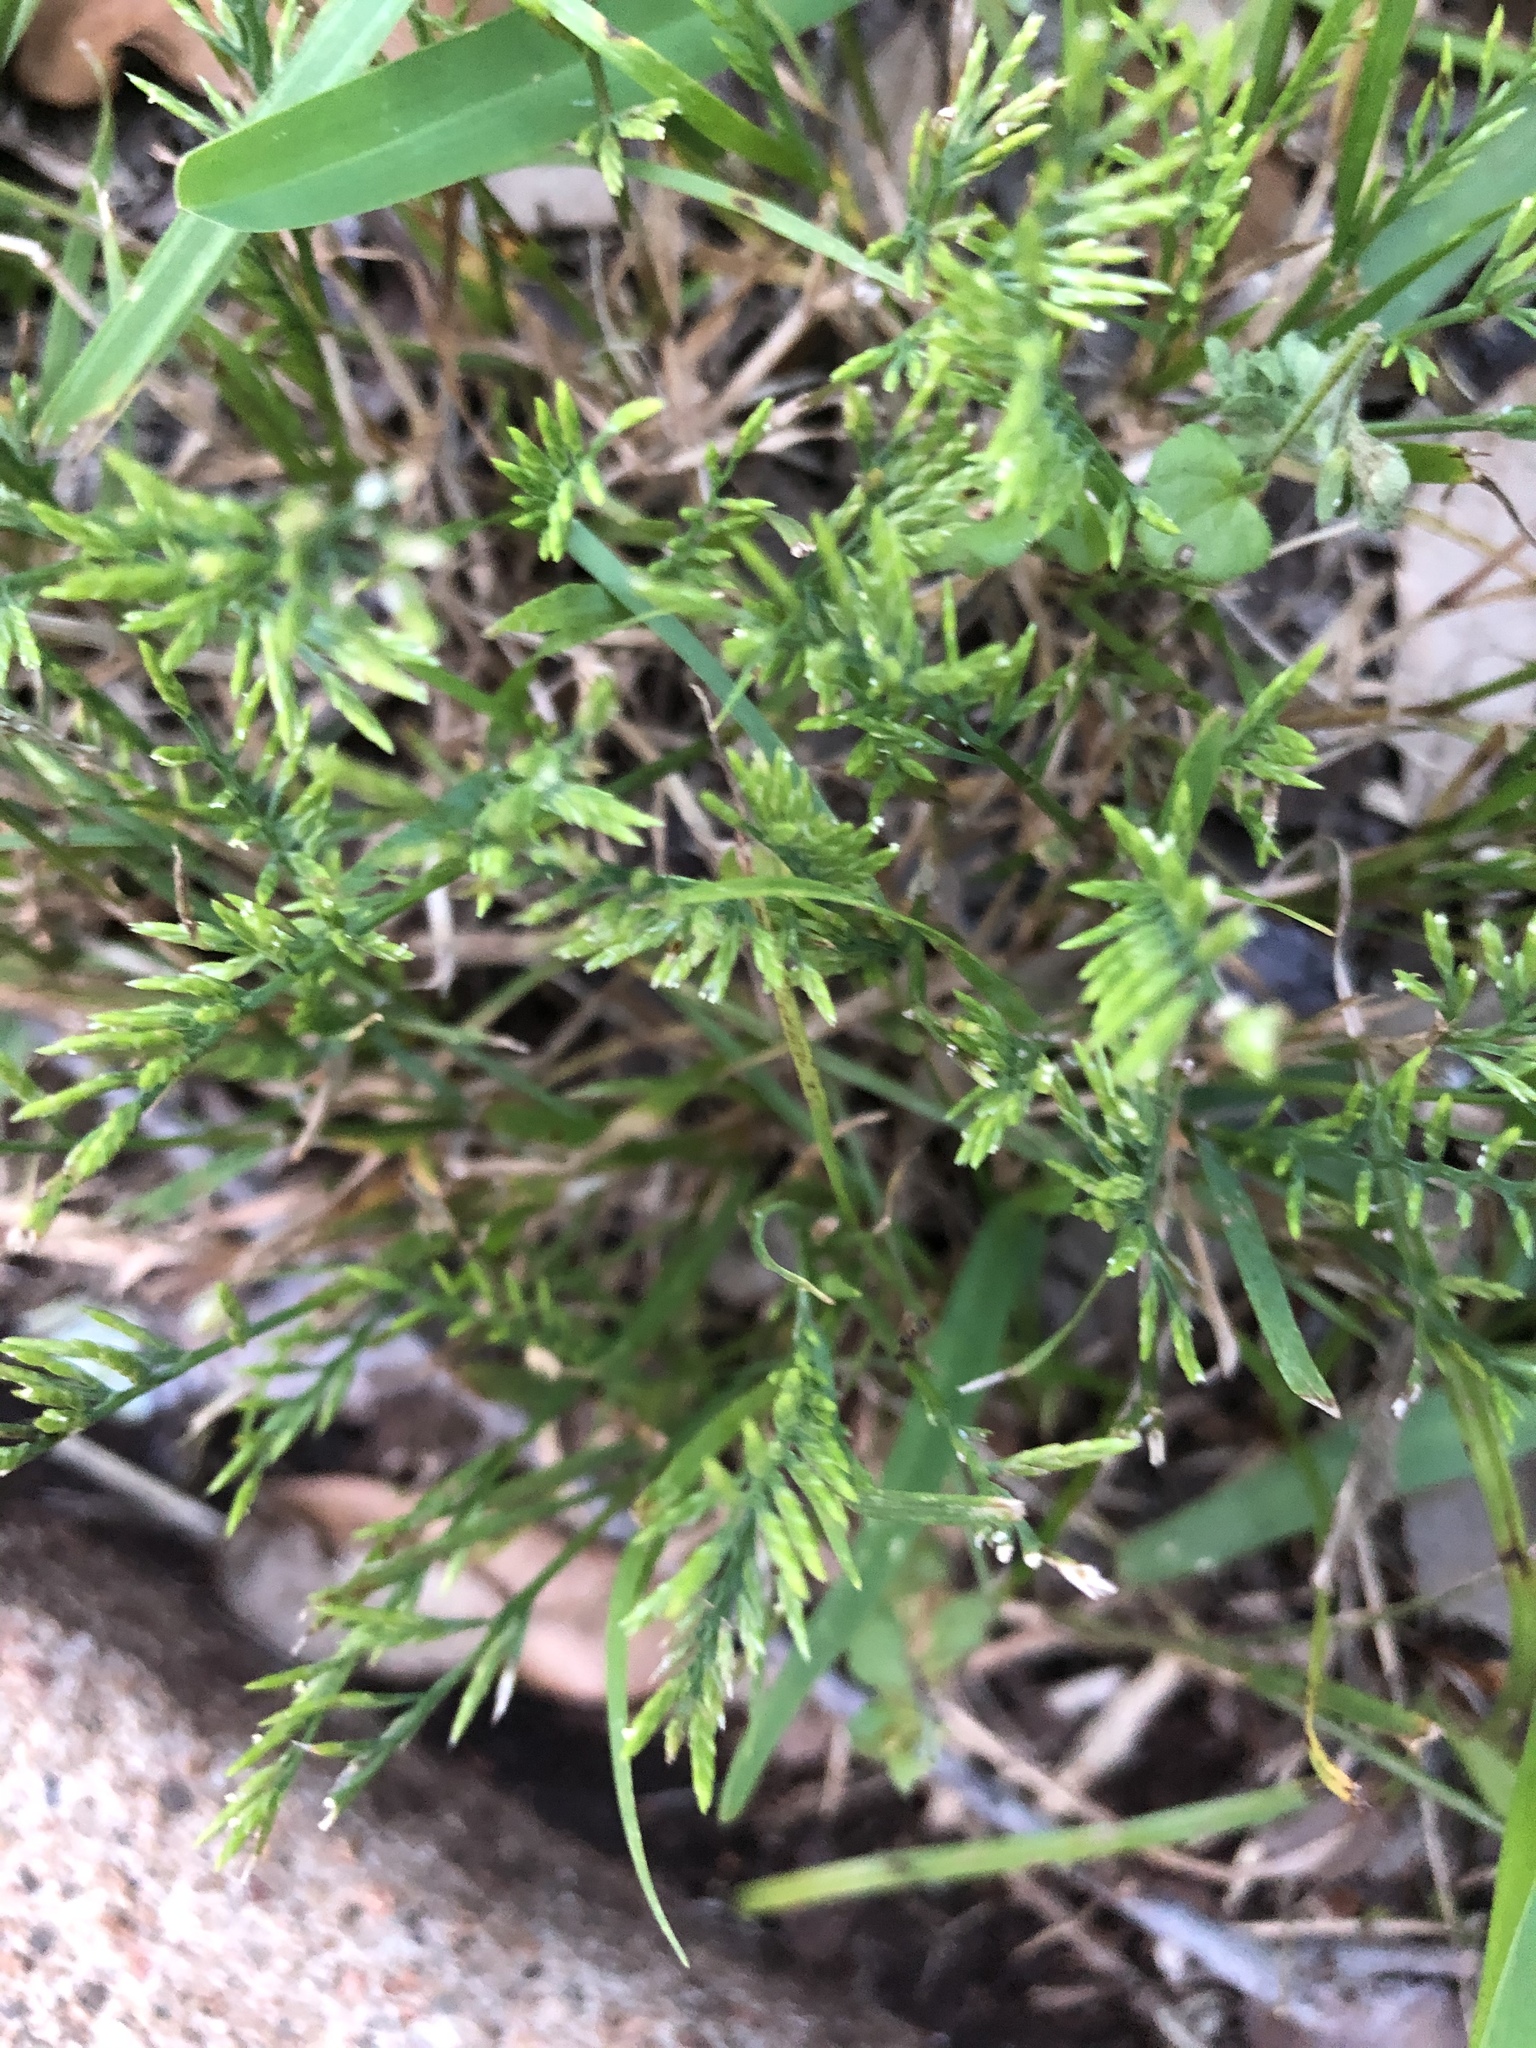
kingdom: Plantae
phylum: Tracheophyta
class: Liliopsida
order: Poales
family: Poaceae
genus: Catapodium
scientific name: Catapodium rigidum
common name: Fern-grass
